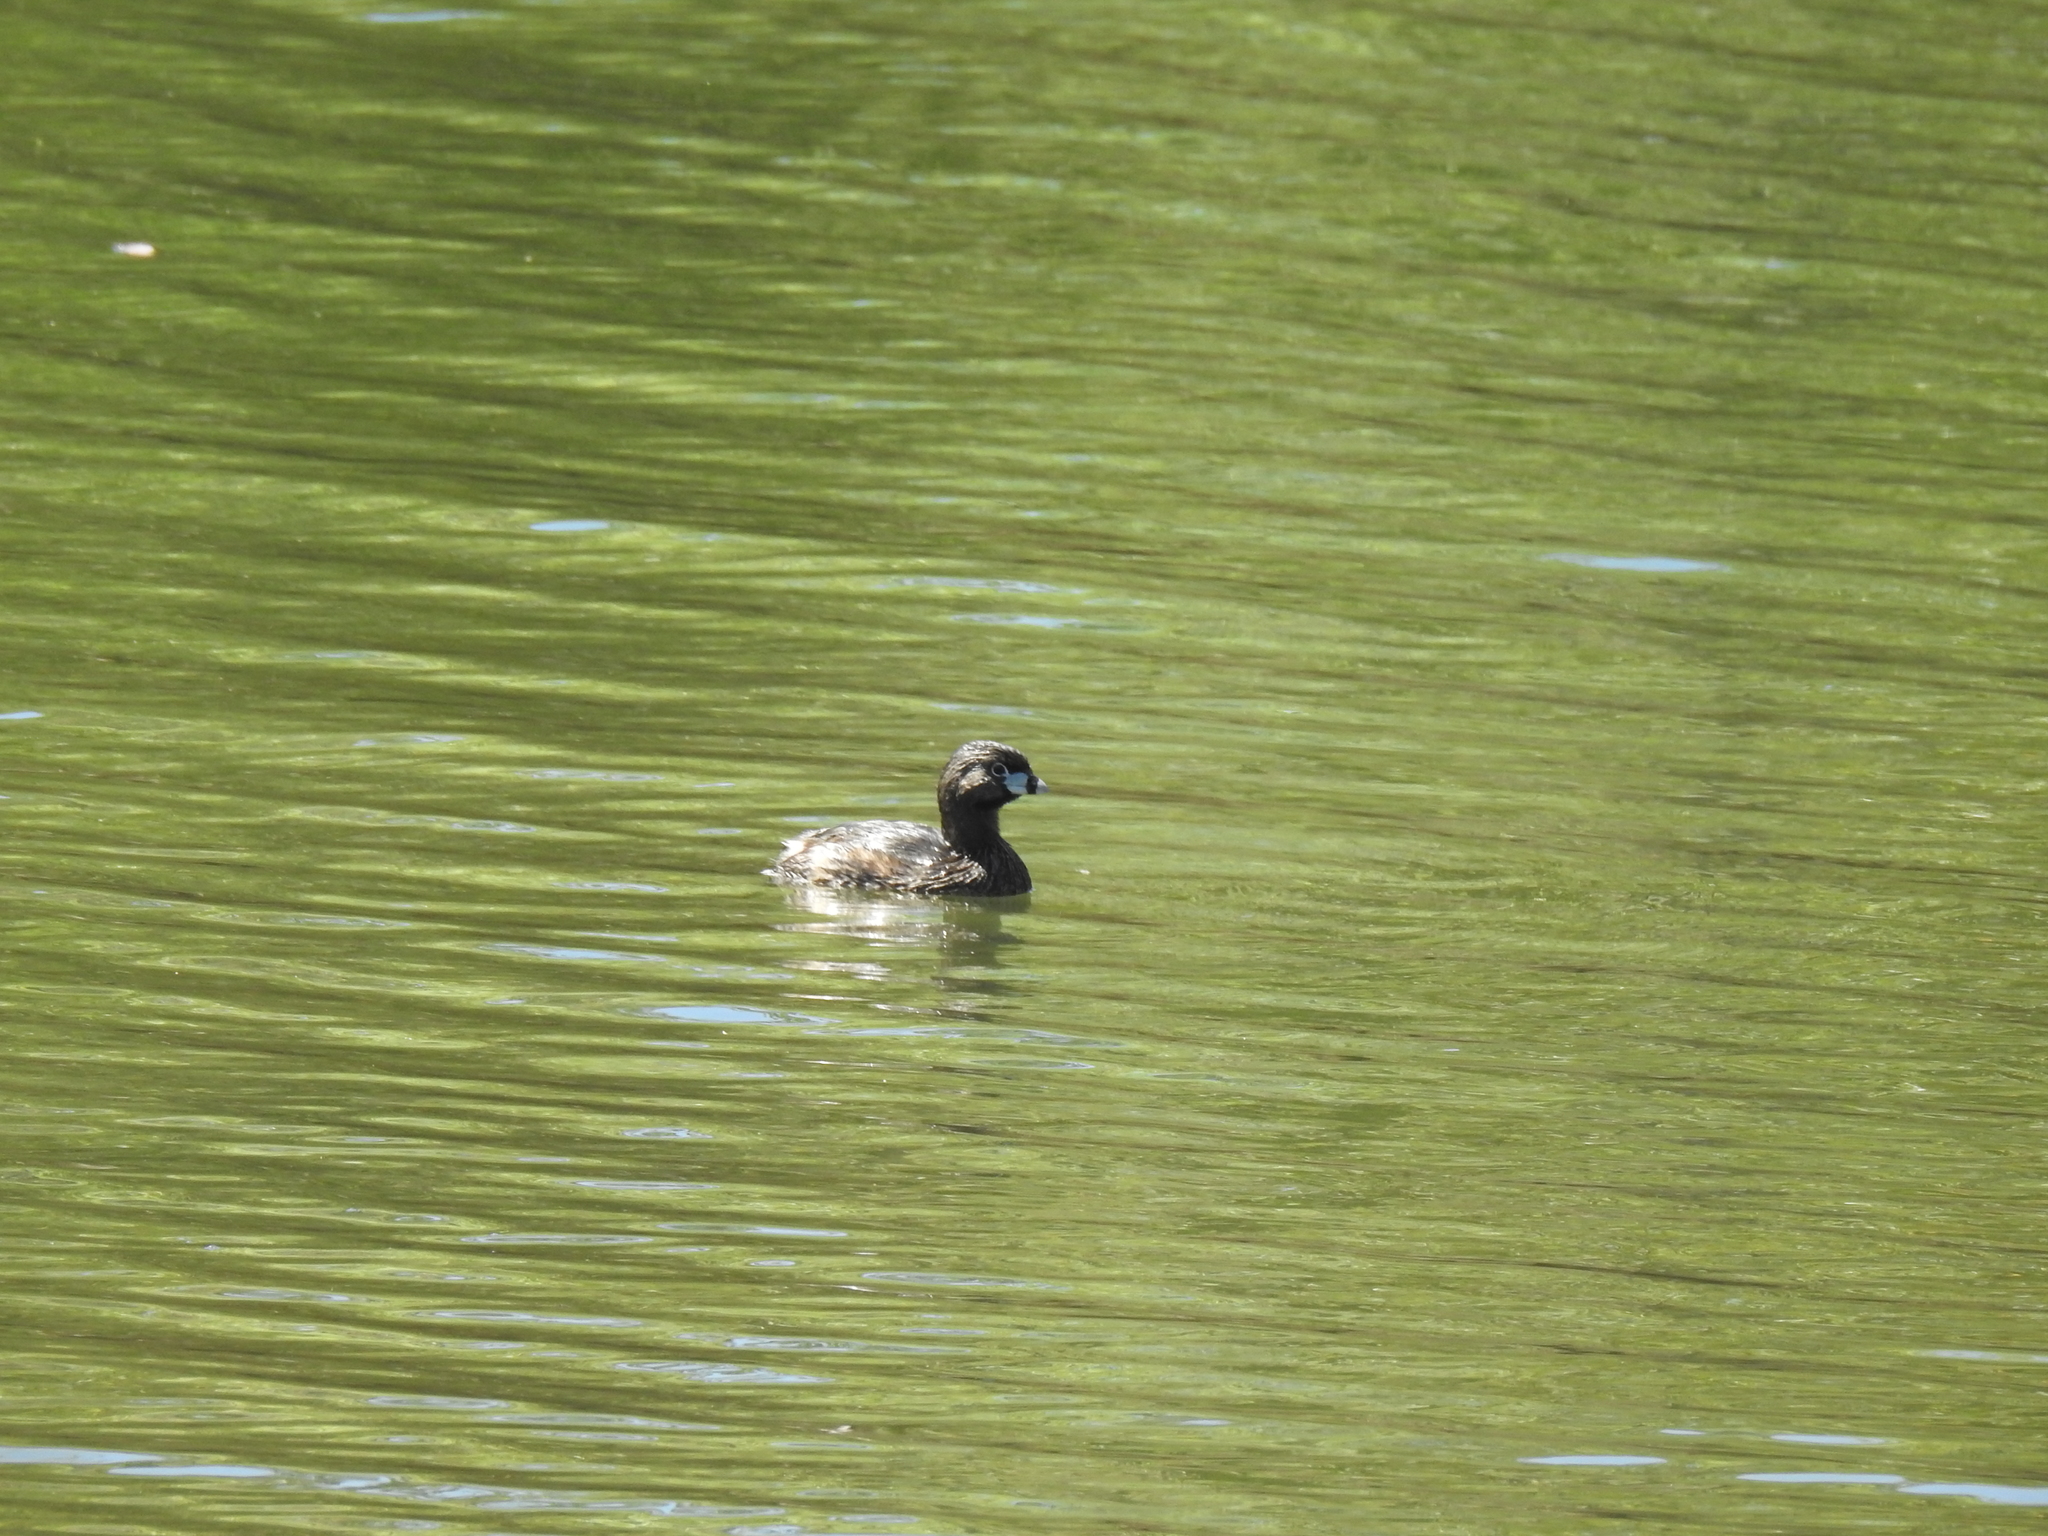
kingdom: Animalia
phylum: Chordata
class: Aves
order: Podicipediformes
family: Podicipedidae
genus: Podilymbus
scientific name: Podilymbus podiceps
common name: Pied-billed grebe
